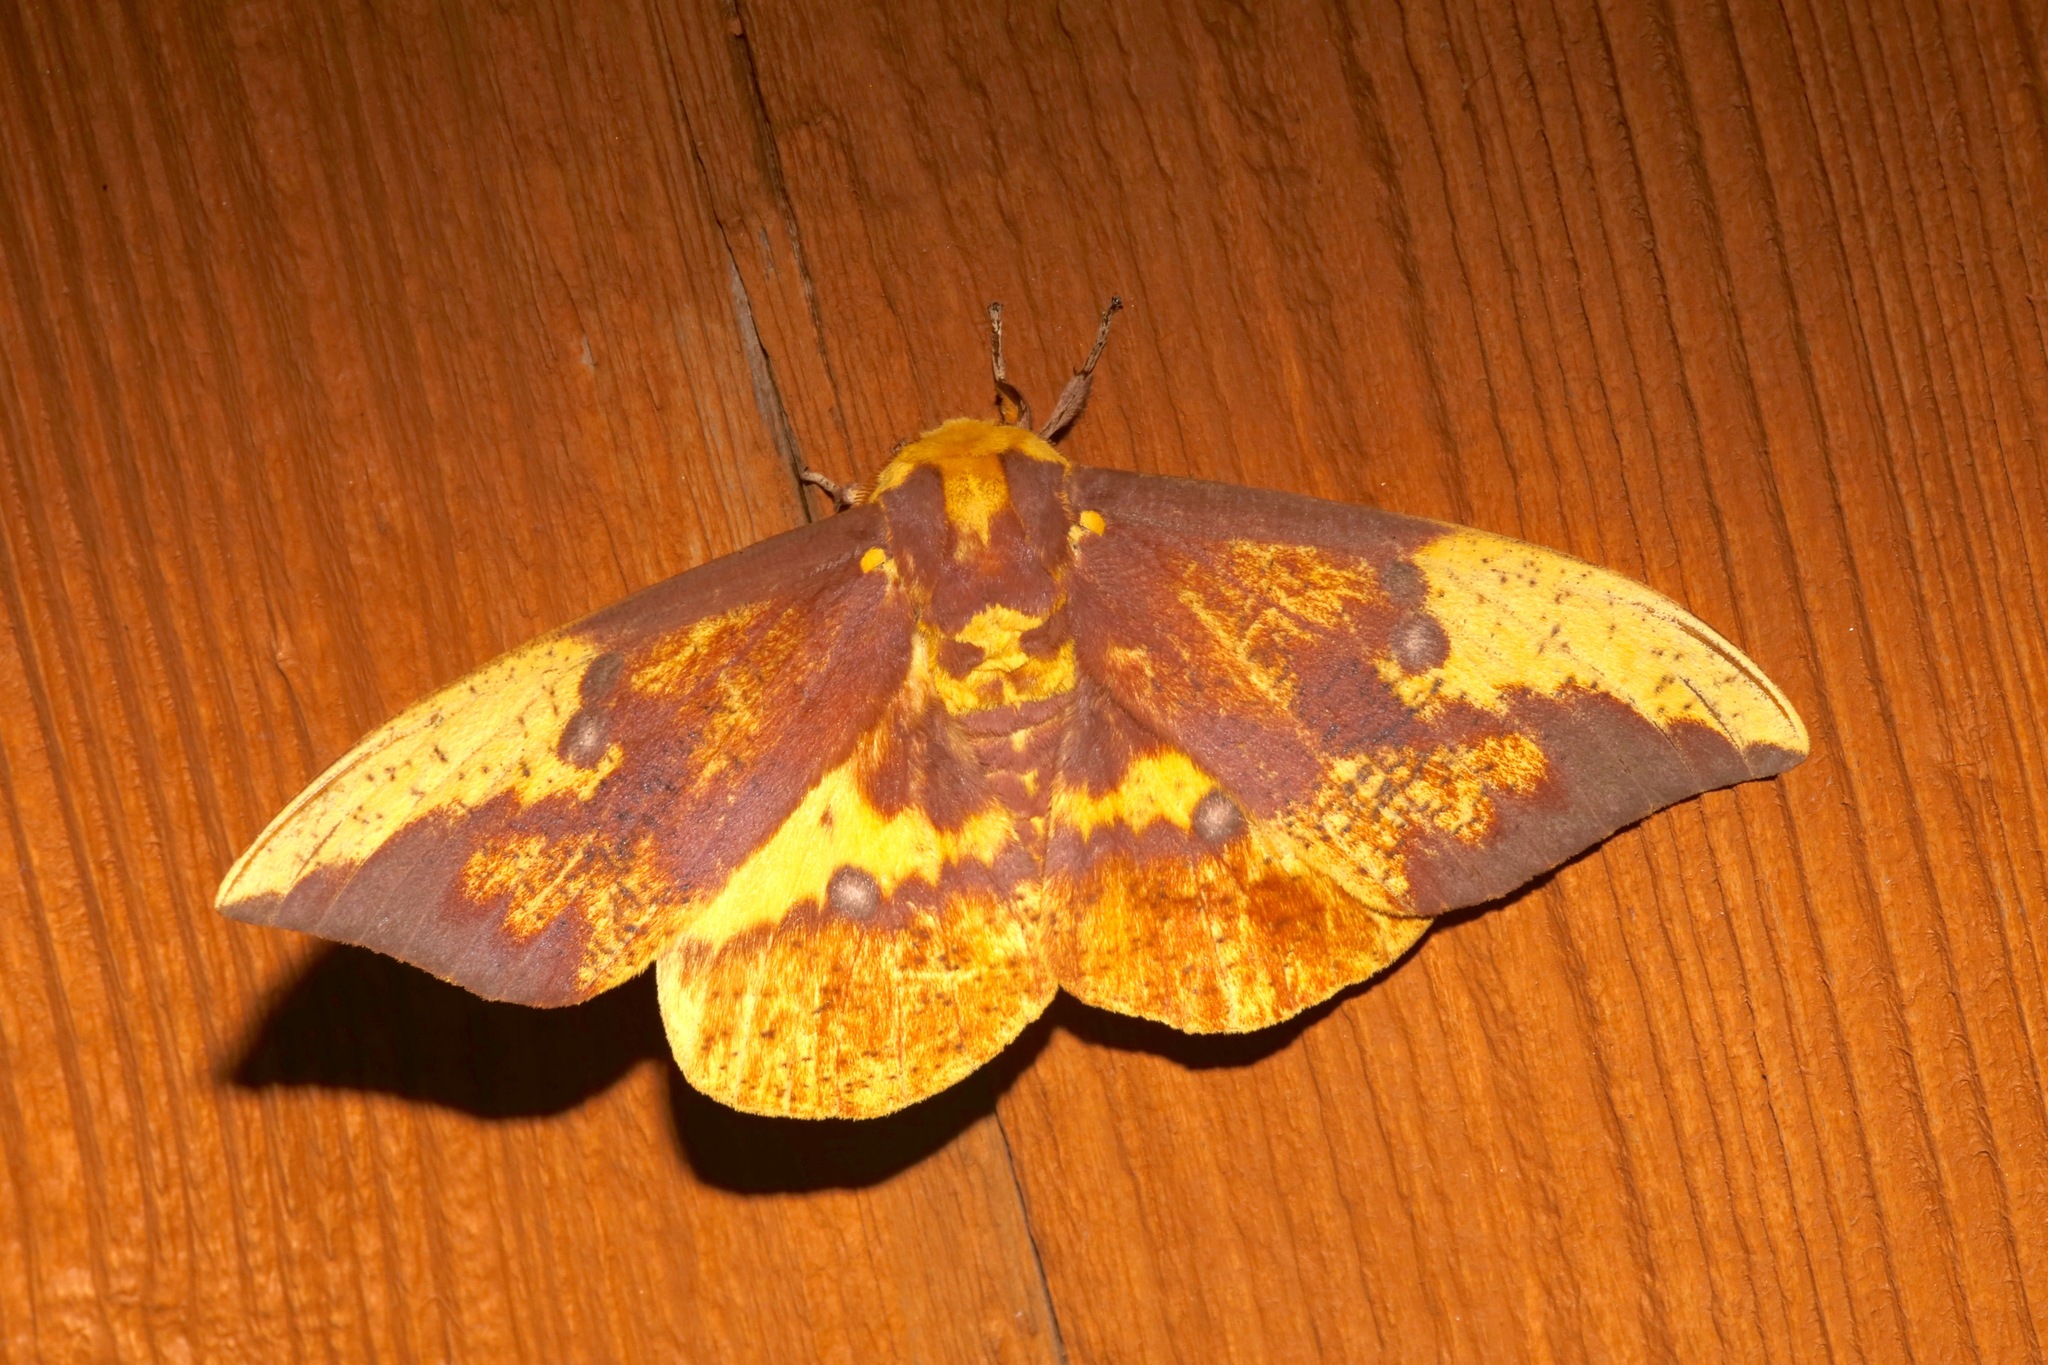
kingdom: Animalia
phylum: Arthropoda
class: Insecta
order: Lepidoptera
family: Saturniidae
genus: Eacles
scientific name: Eacles imperialis
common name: Imperial moth
